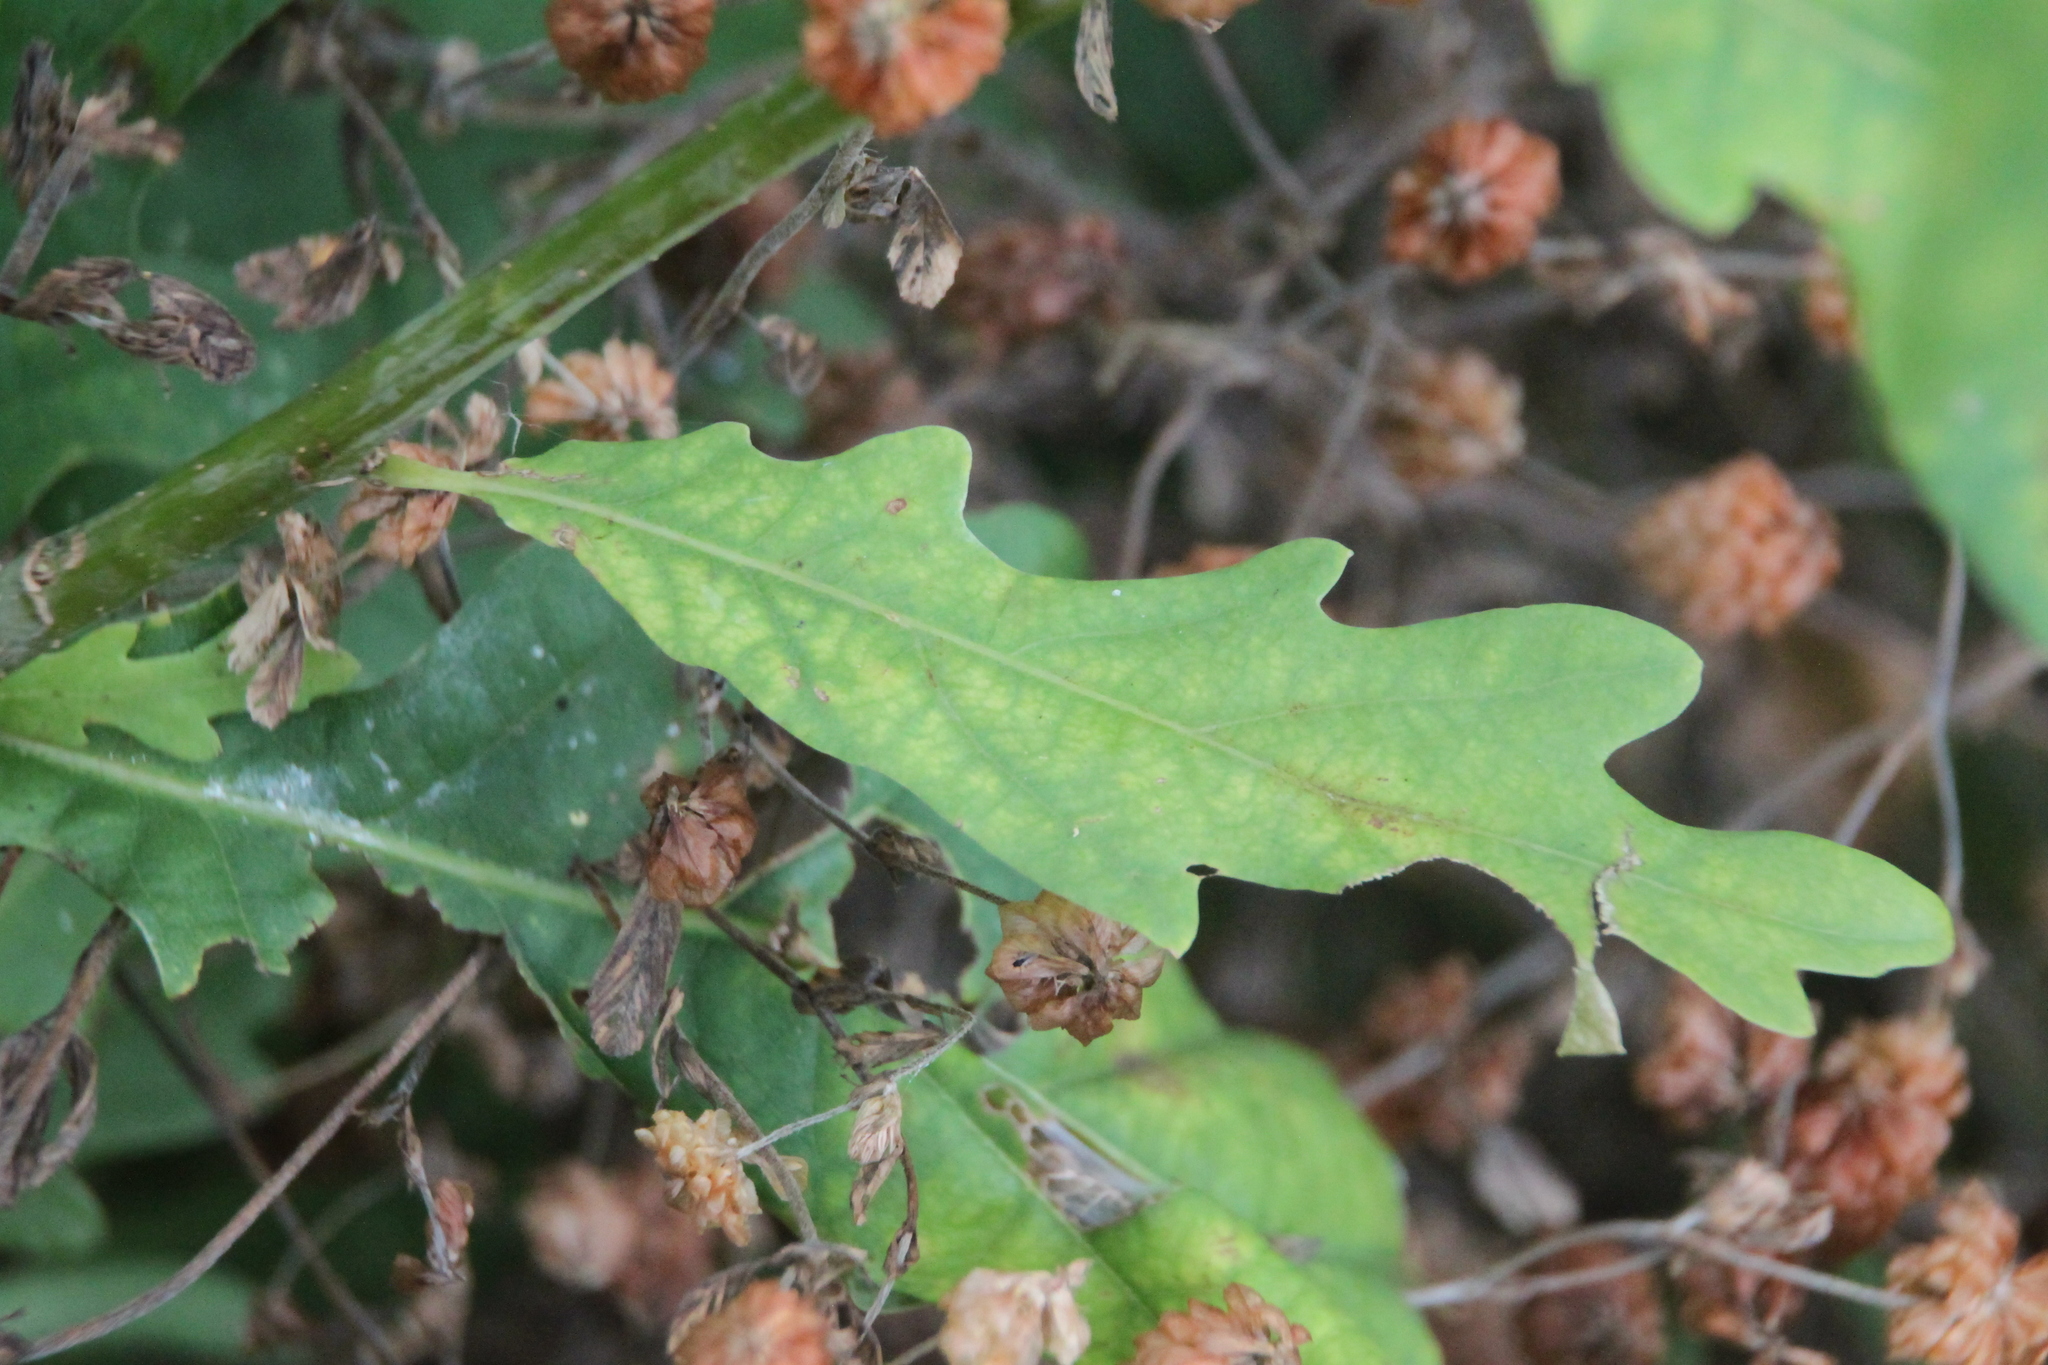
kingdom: Plantae
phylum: Tracheophyta
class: Magnoliopsida
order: Fagales
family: Fagaceae
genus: Quercus
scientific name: Quercus robur
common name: Pedunculate oak
